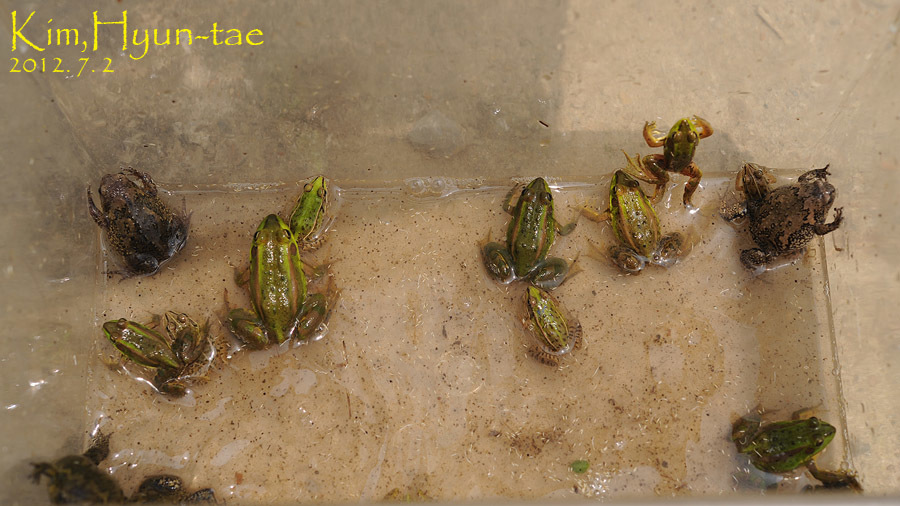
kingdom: Animalia
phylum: Chordata
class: Amphibia
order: Anura
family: Ranidae
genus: Pelophylax
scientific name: Pelophylax chosenicus
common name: Gold-spotted pond frog
